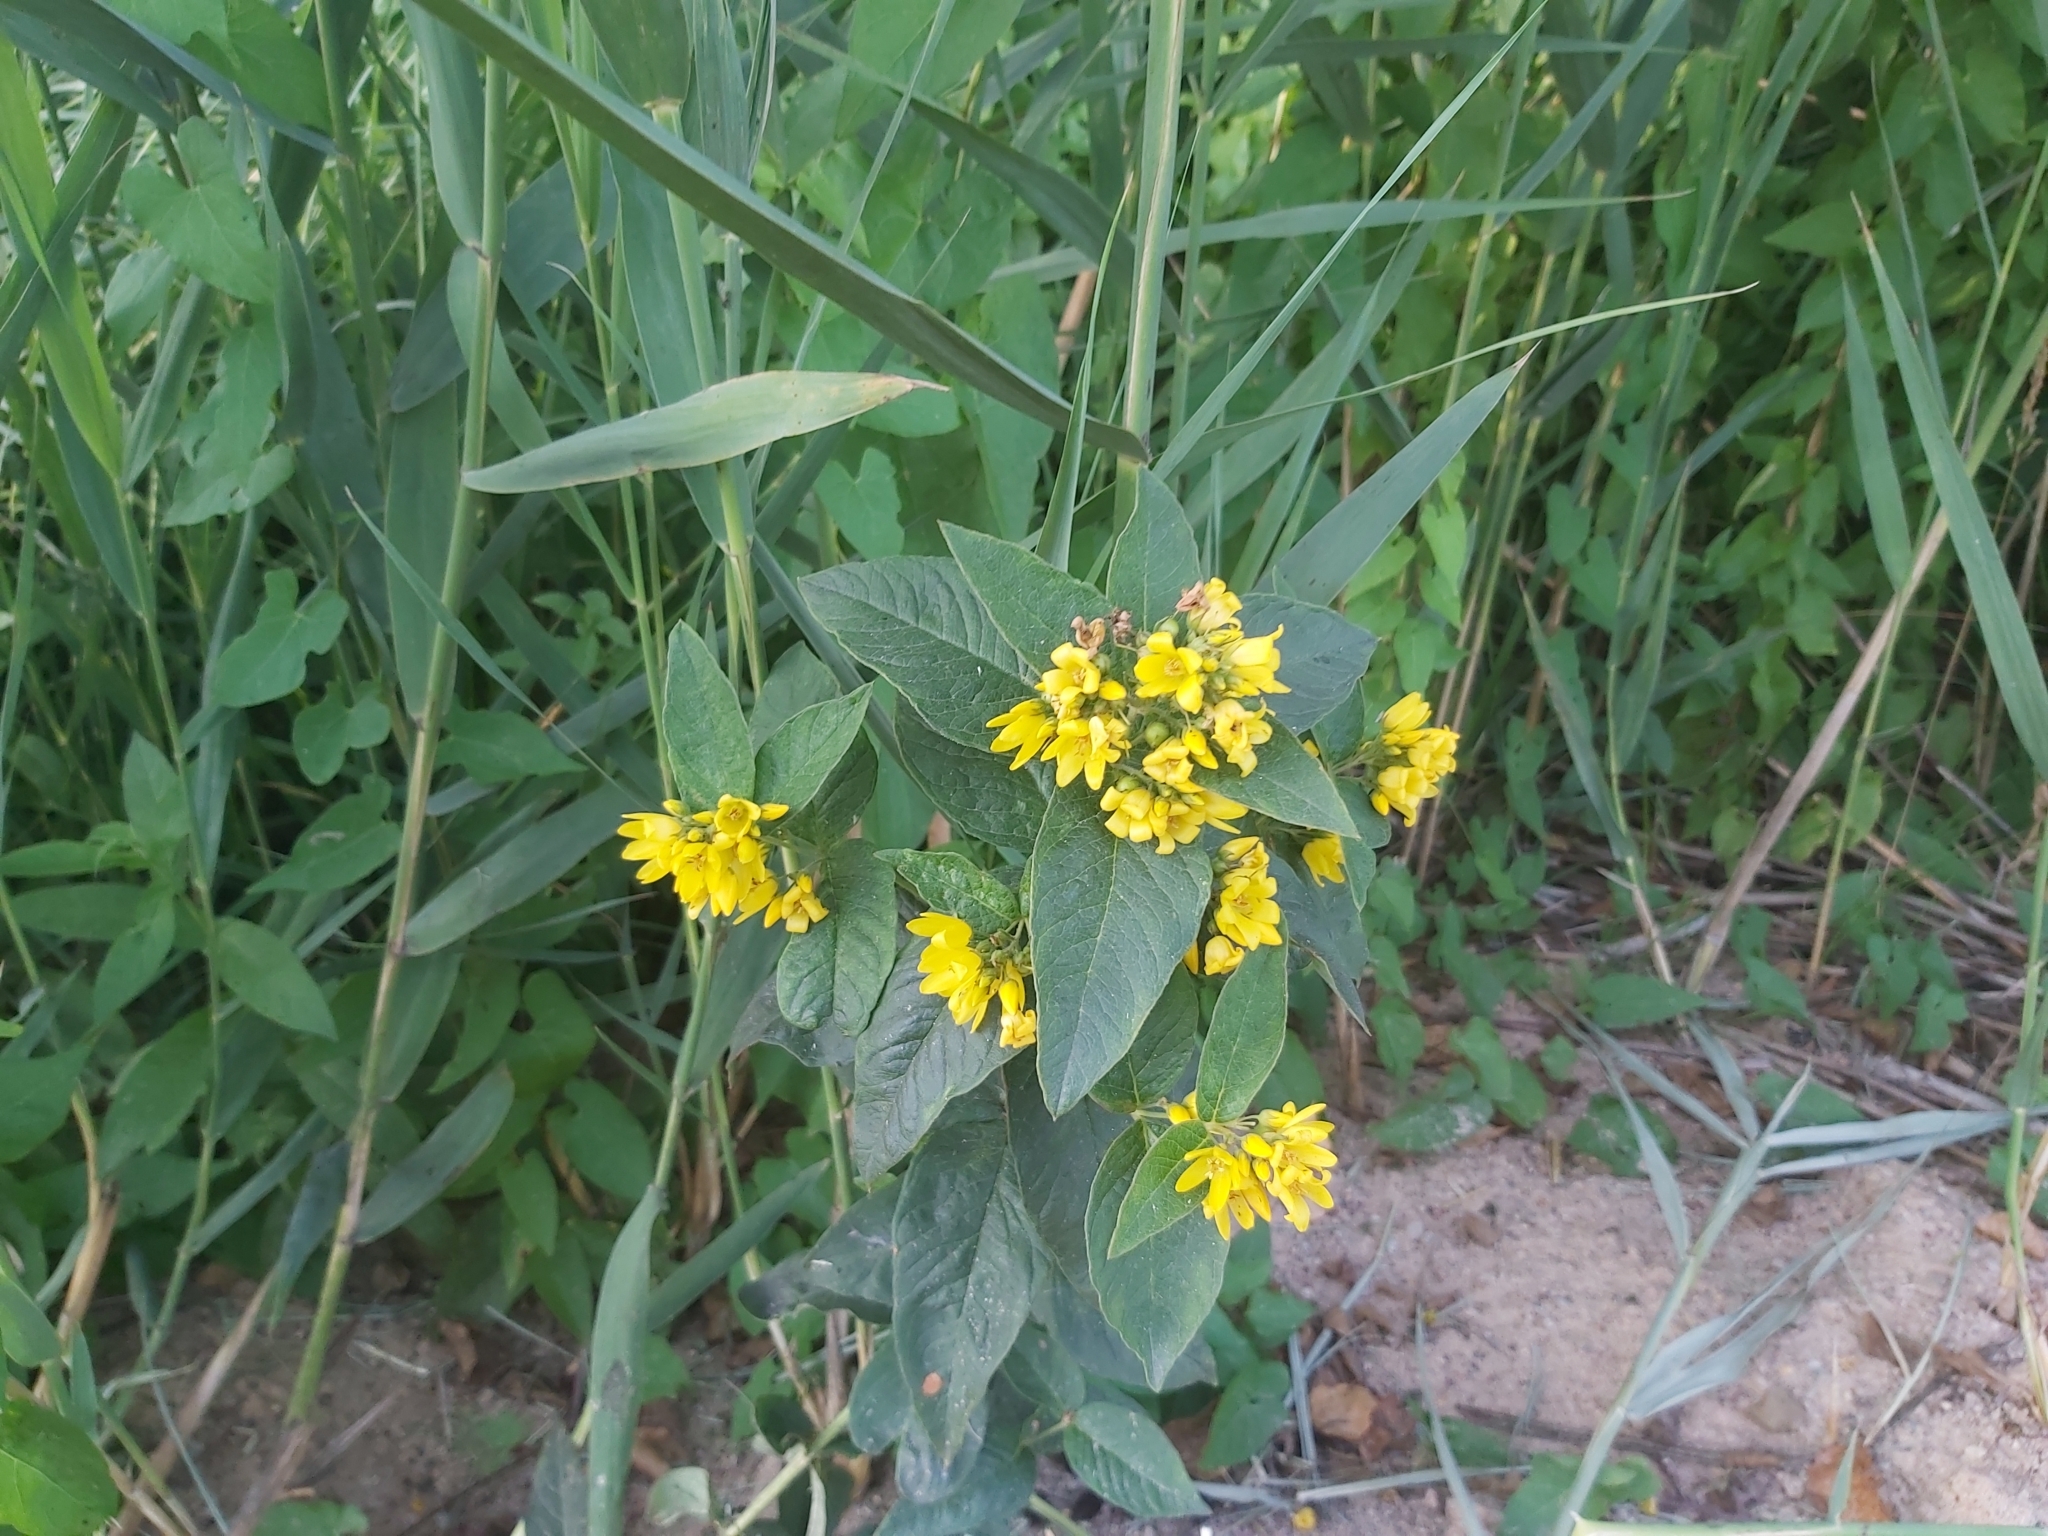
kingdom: Plantae
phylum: Tracheophyta
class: Magnoliopsida
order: Ericales
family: Primulaceae
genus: Lysimachia
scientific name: Lysimachia vulgaris
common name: Yellow loosestrife
